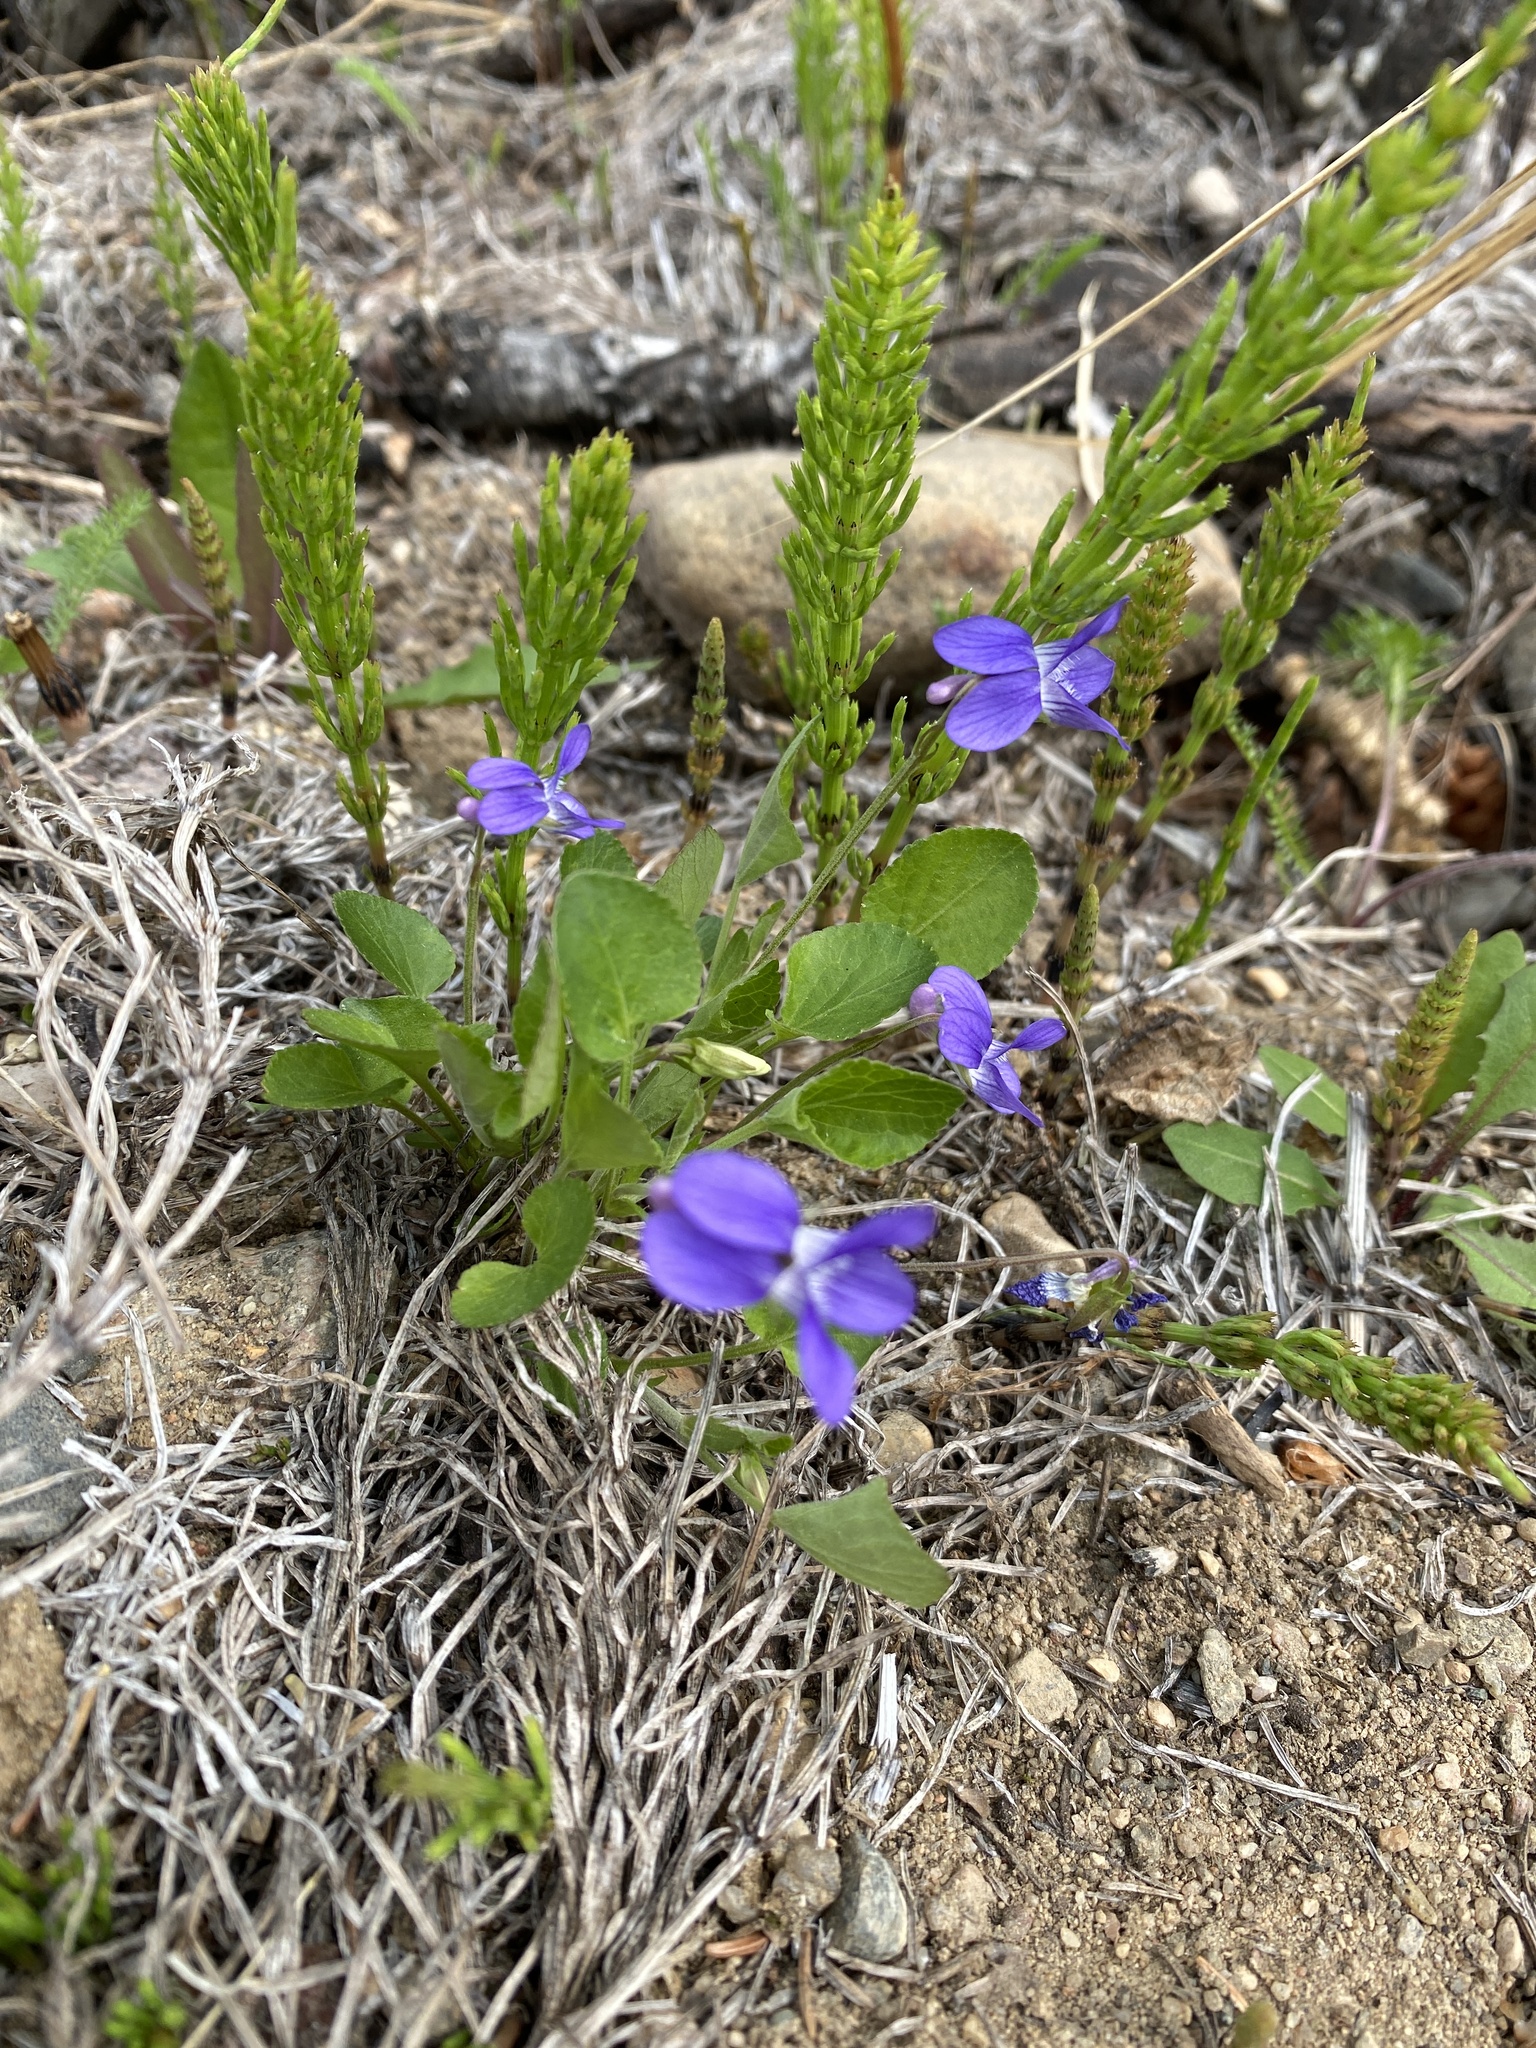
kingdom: Plantae
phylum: Tracheophyta
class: Magnoliopsida
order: Malpighiales
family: Violaceae
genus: Viola
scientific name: Viola adunca
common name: Sand violet
